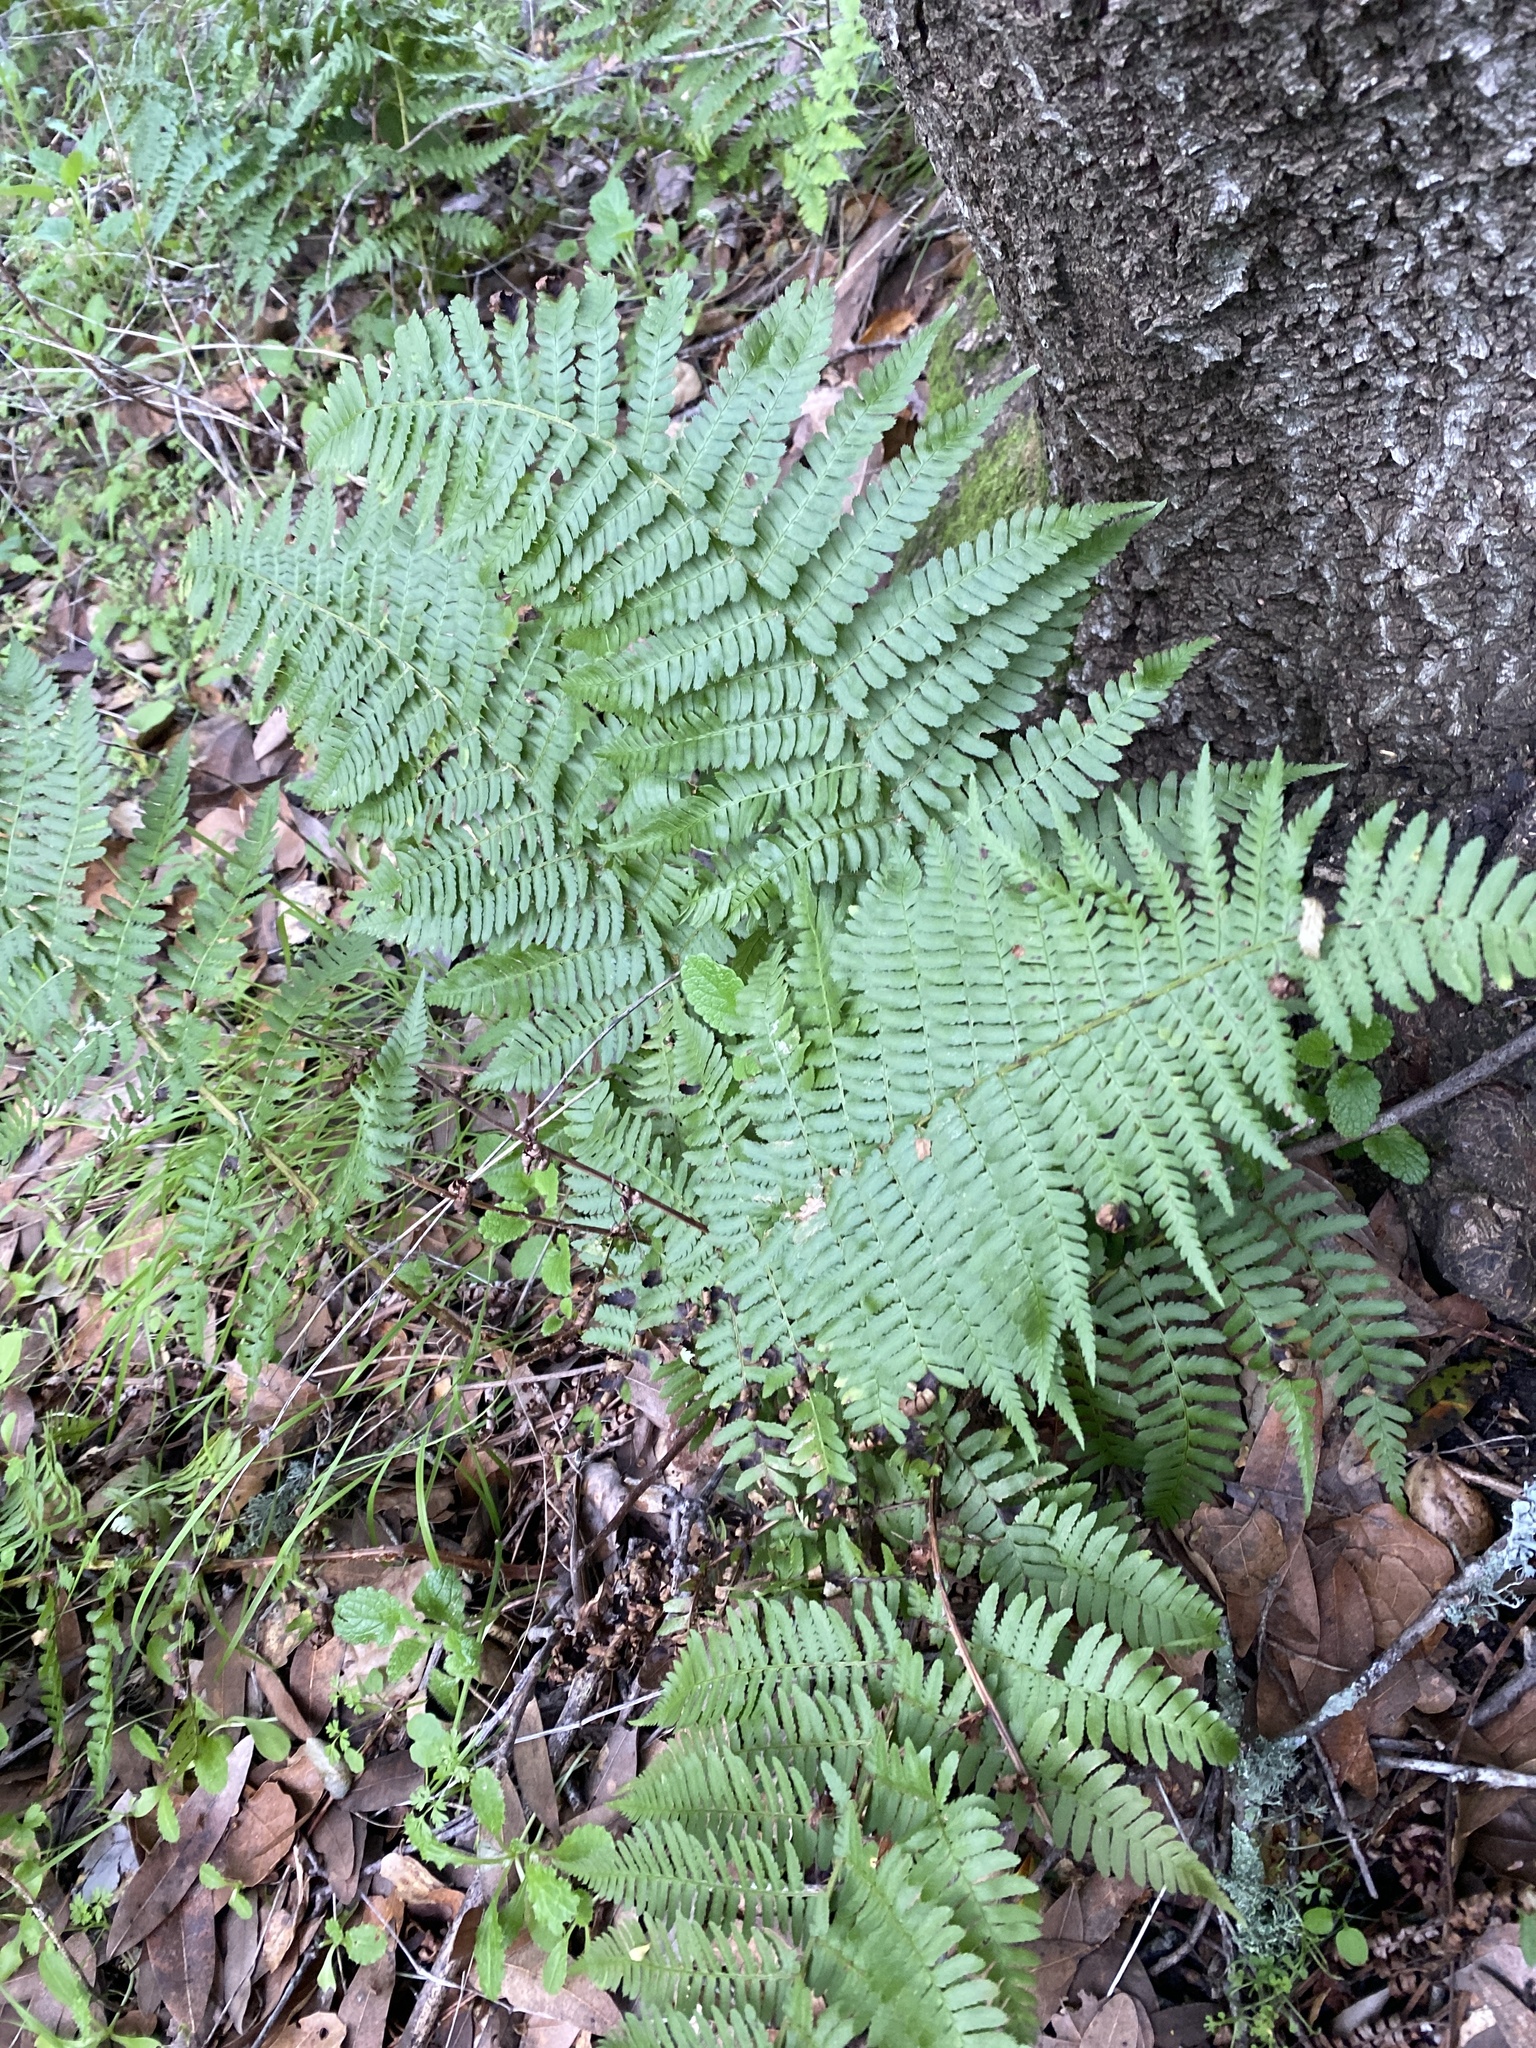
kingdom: Plantae
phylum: Tracheophyta
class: Polypodiopsida
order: Polypodiales
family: Dryopteridaceae
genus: Dryopteris
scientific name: Dryopteris arguta
